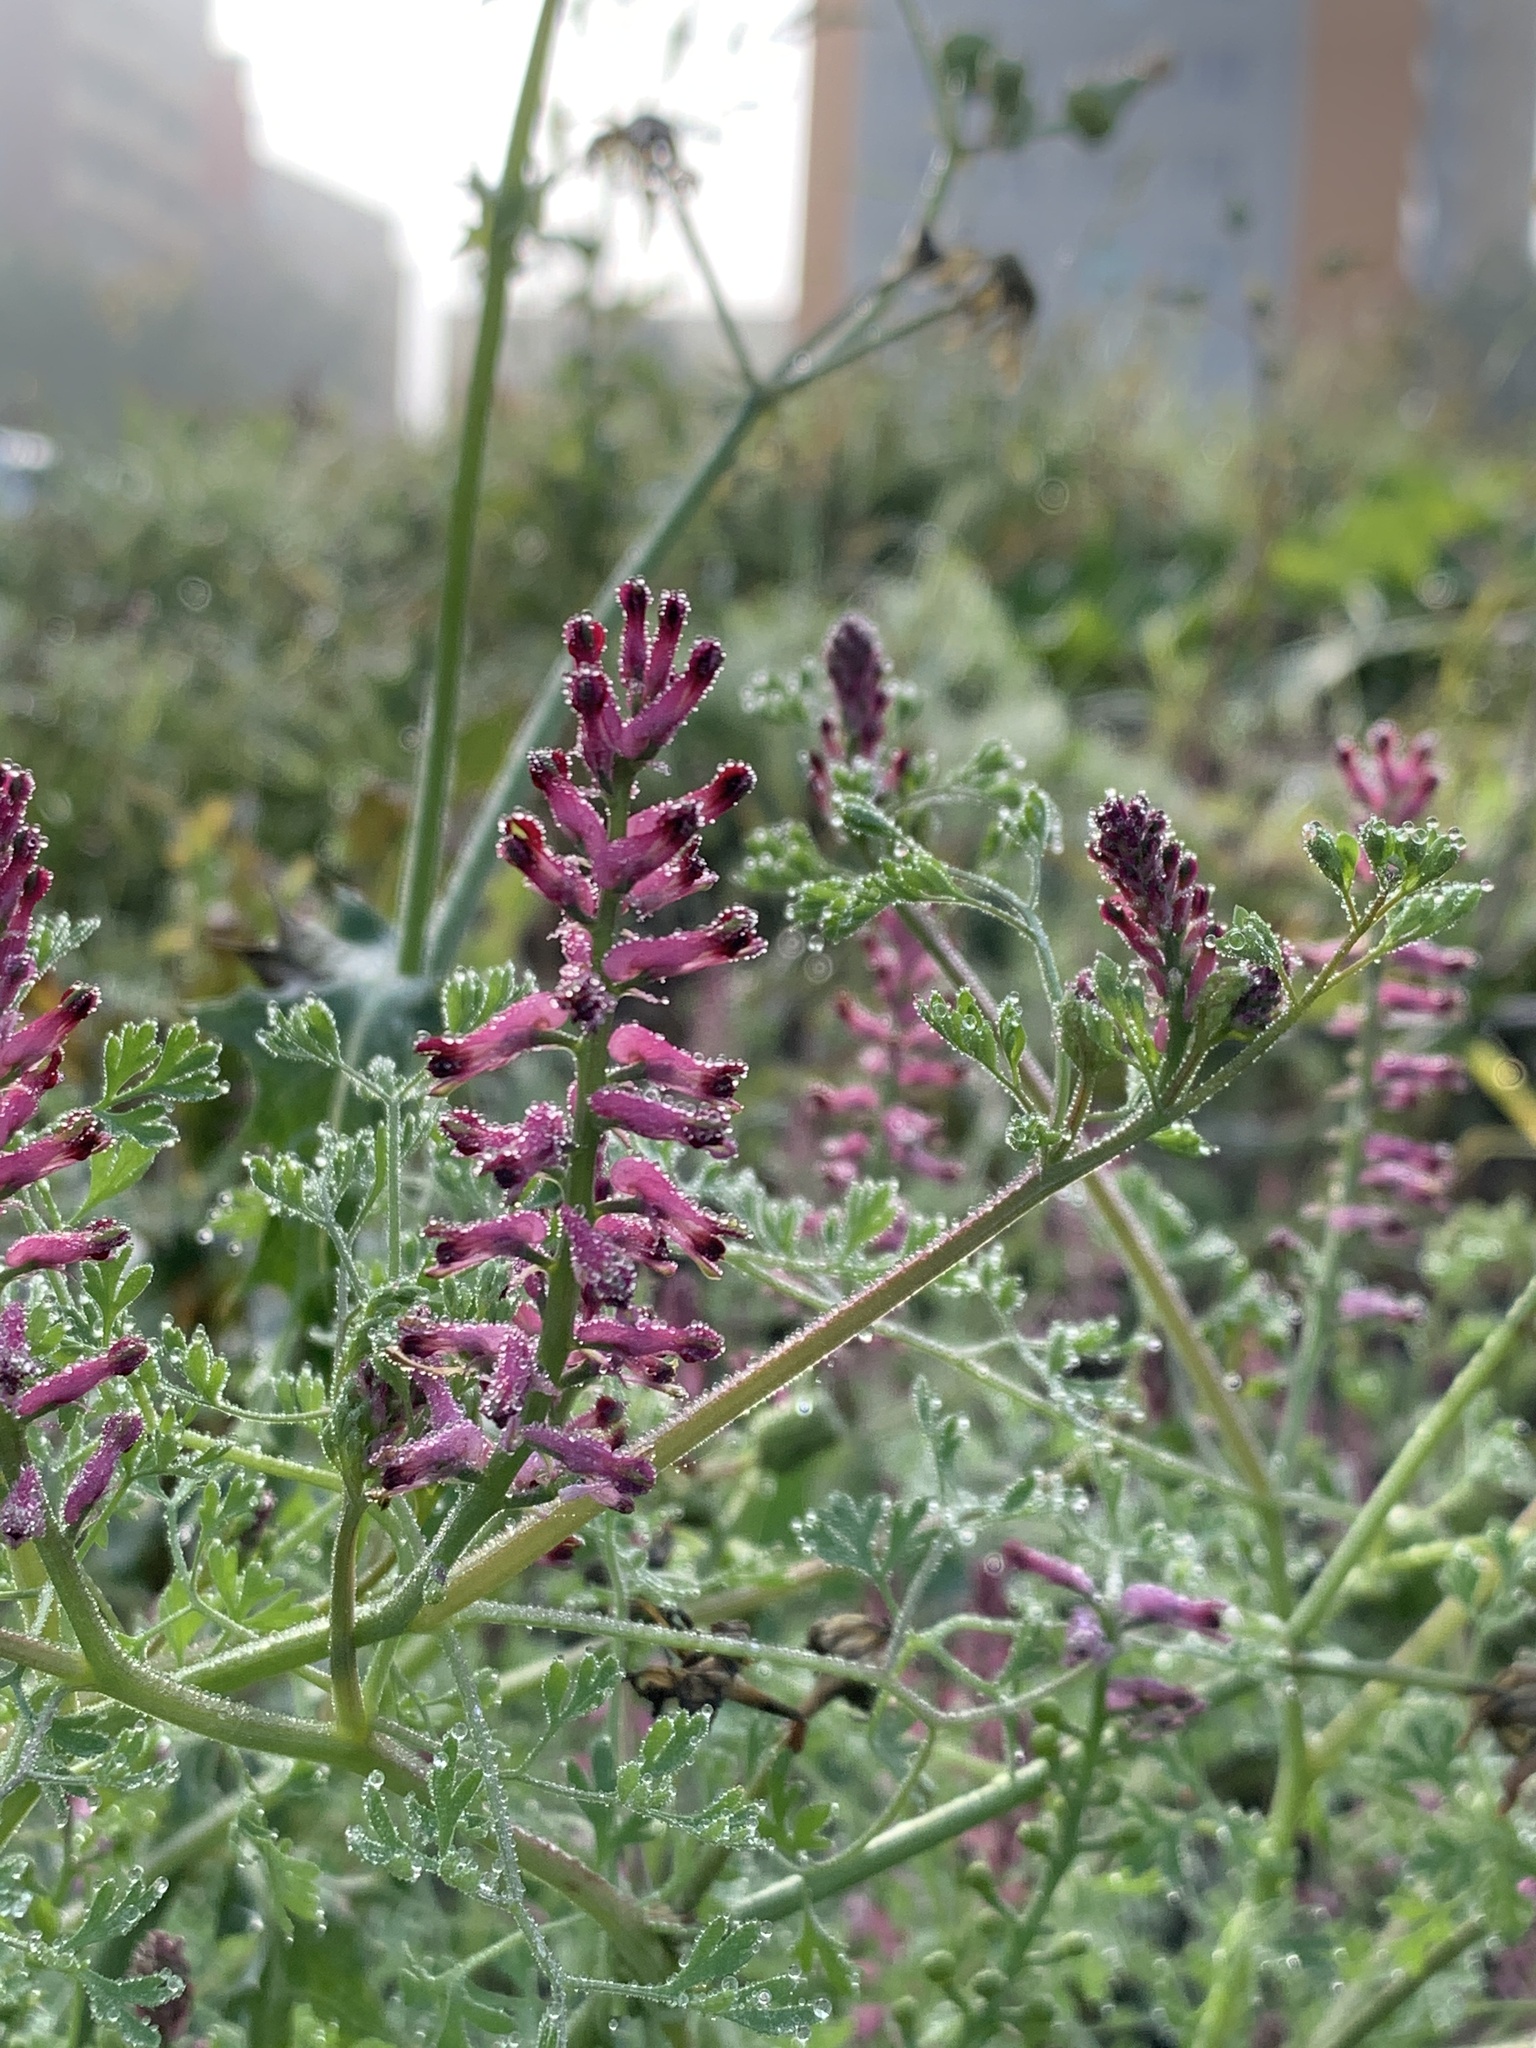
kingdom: Plantae
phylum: Tracheophyta
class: Magnoliopsida
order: Ranunculales
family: Papaveraceae
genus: Fumaria
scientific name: Fumaria officinalis
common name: Common fumitory
